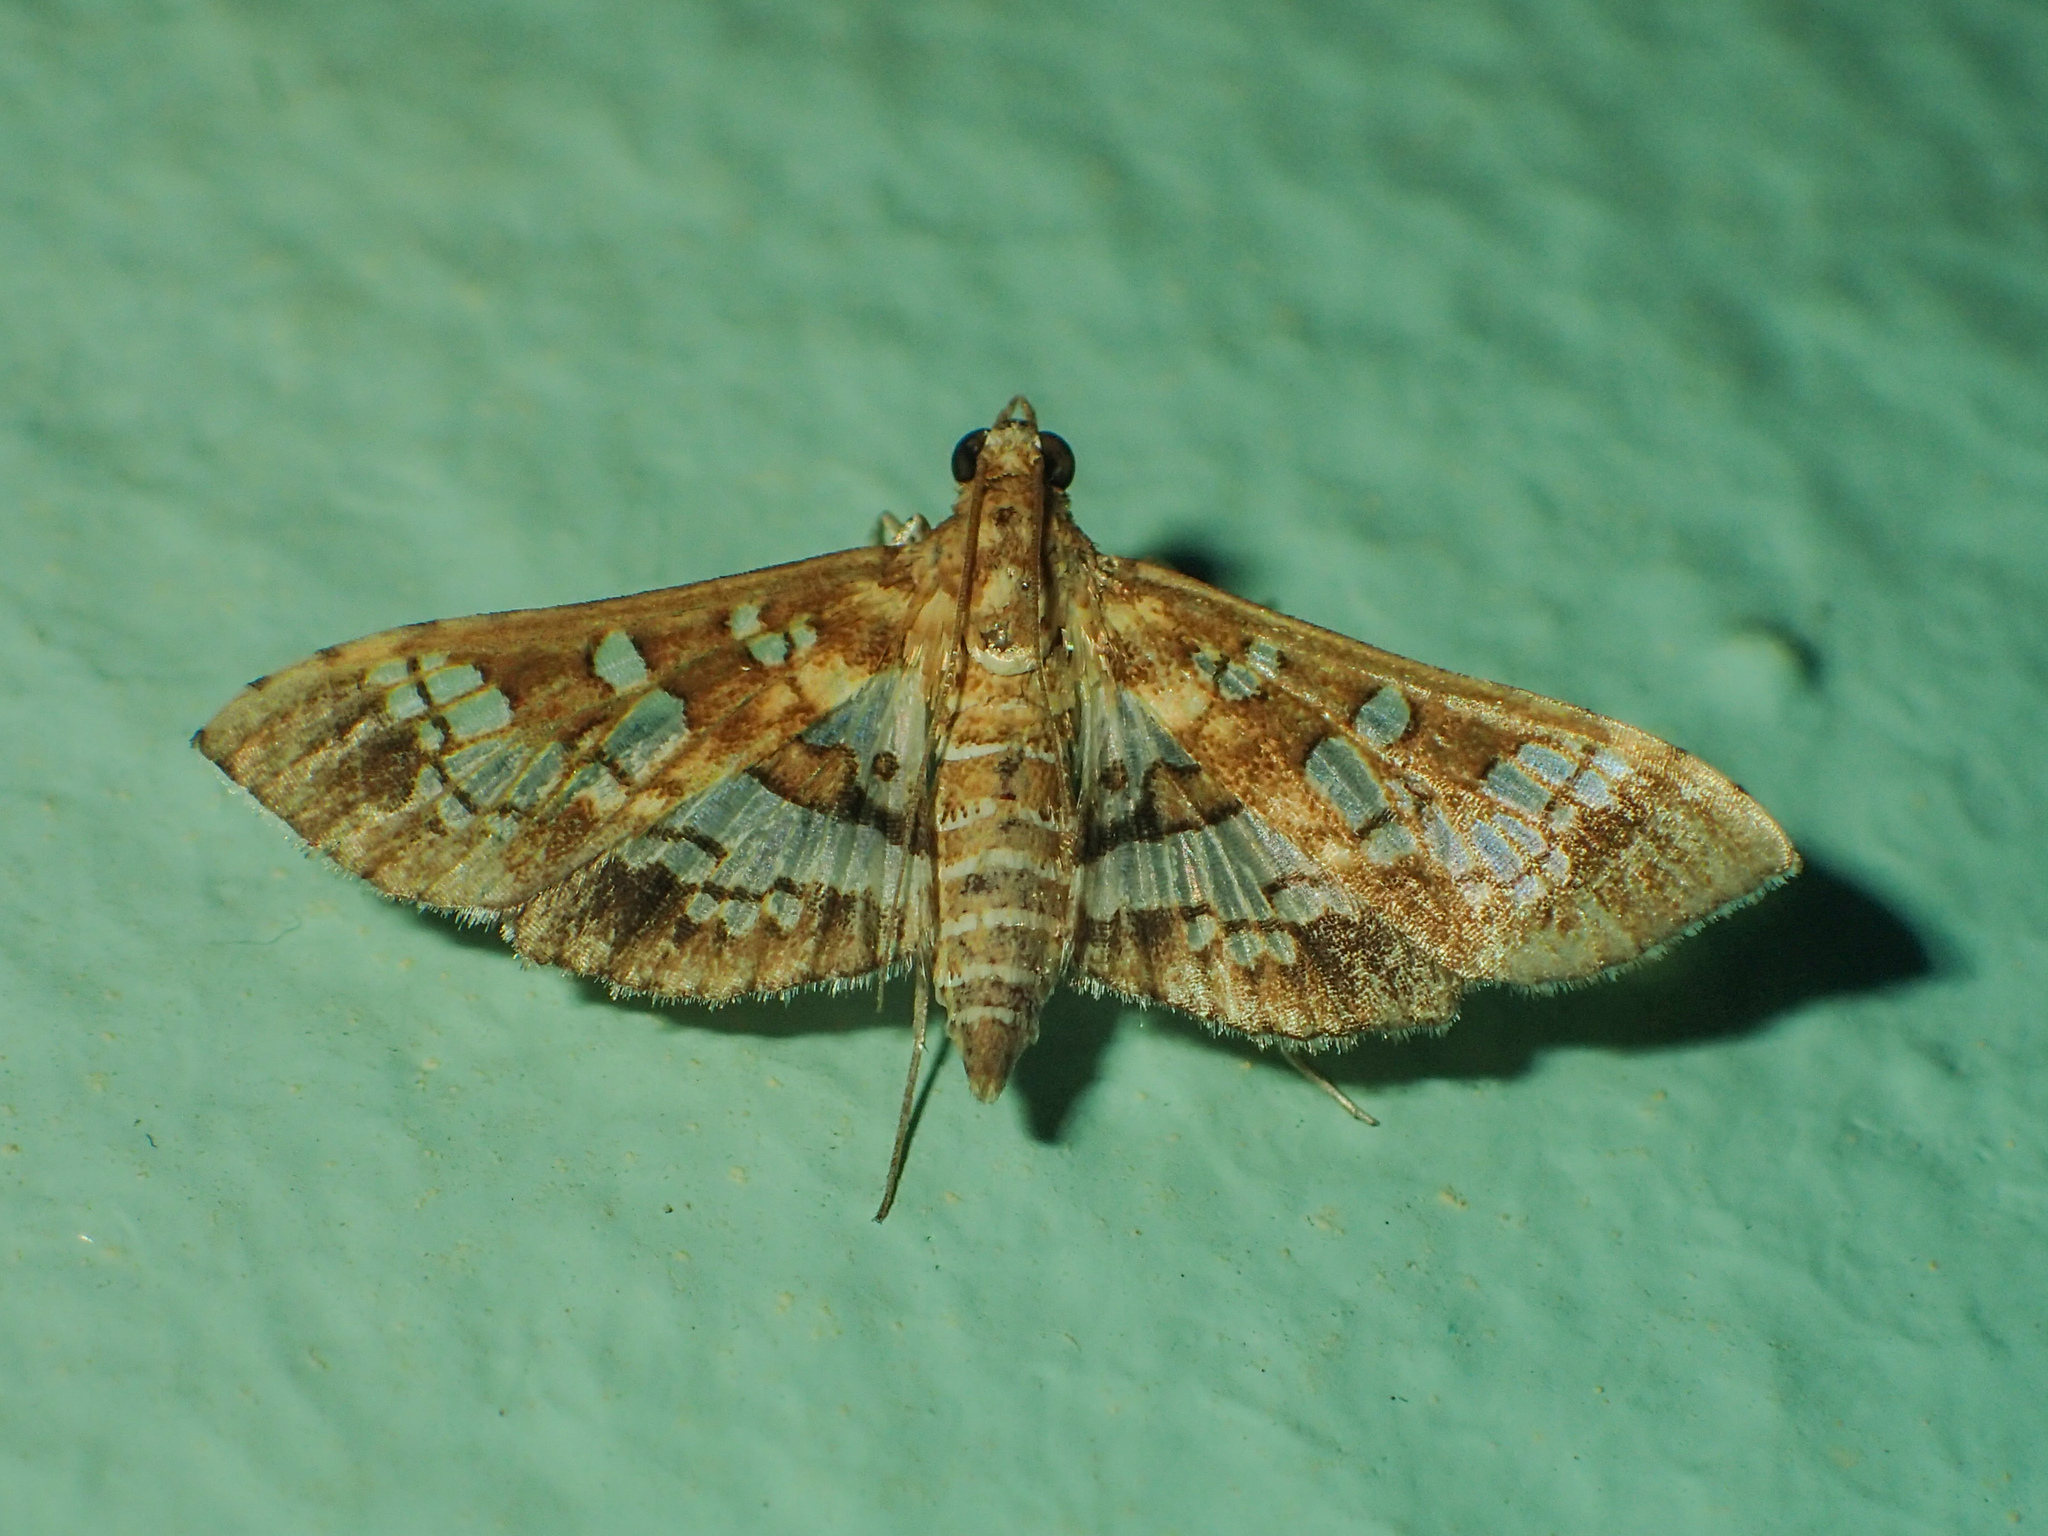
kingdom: Animalia
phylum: Arthropoda
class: Insecta
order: Lepidoptera
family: Crambidae
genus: Sameodes
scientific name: Sameodes cancellalis
